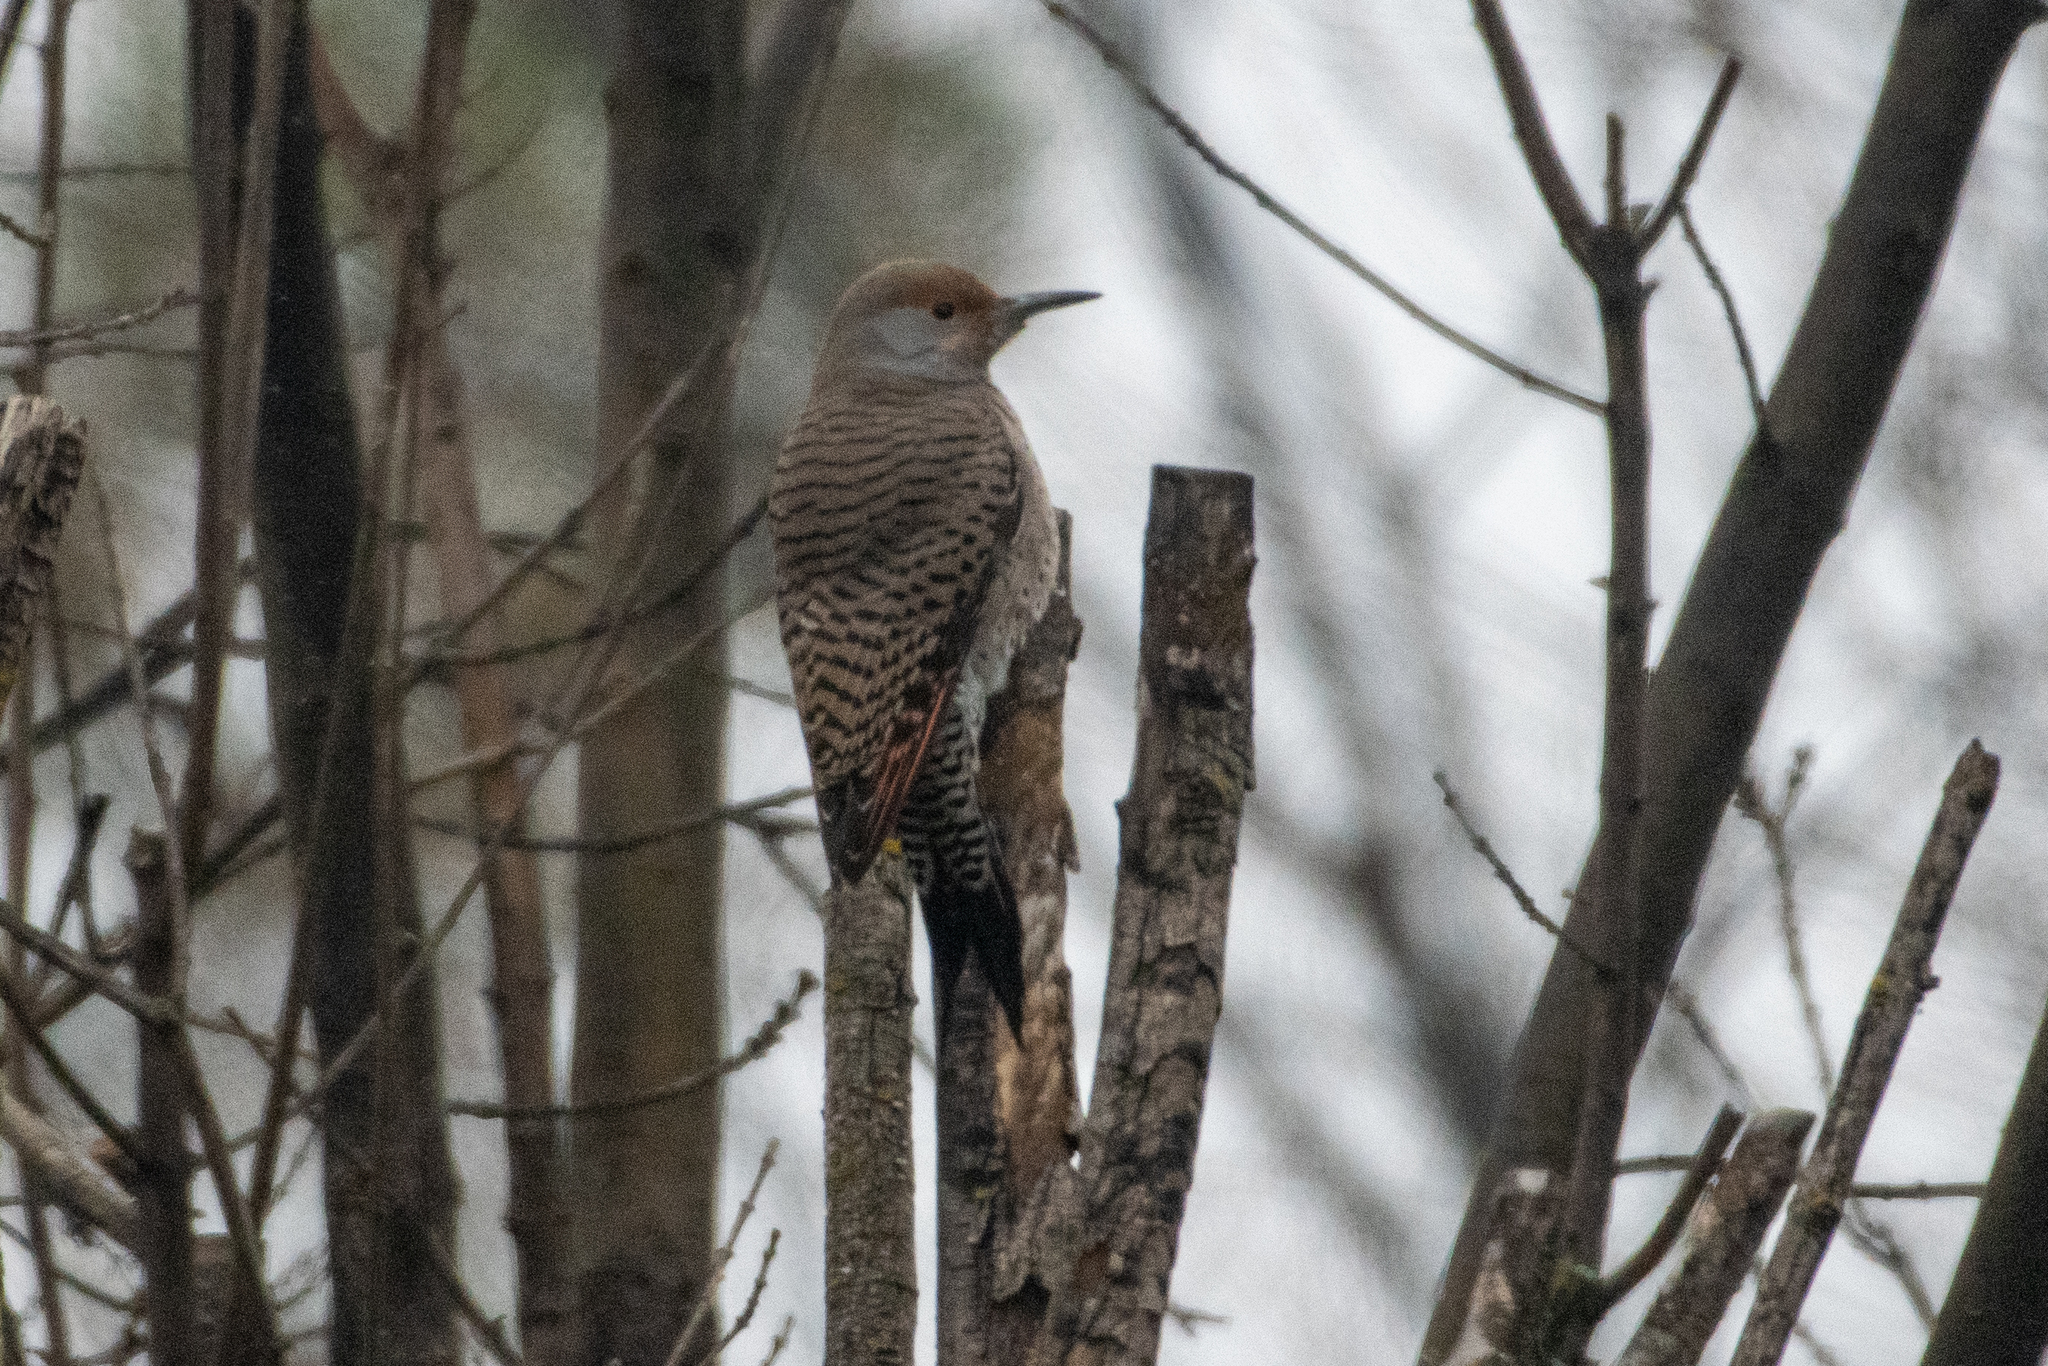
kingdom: Animalia
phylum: Chordata
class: Aves
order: Piciformes
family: Picidae
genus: Colaptes
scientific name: Colaptes auratus
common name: Northern flicker
